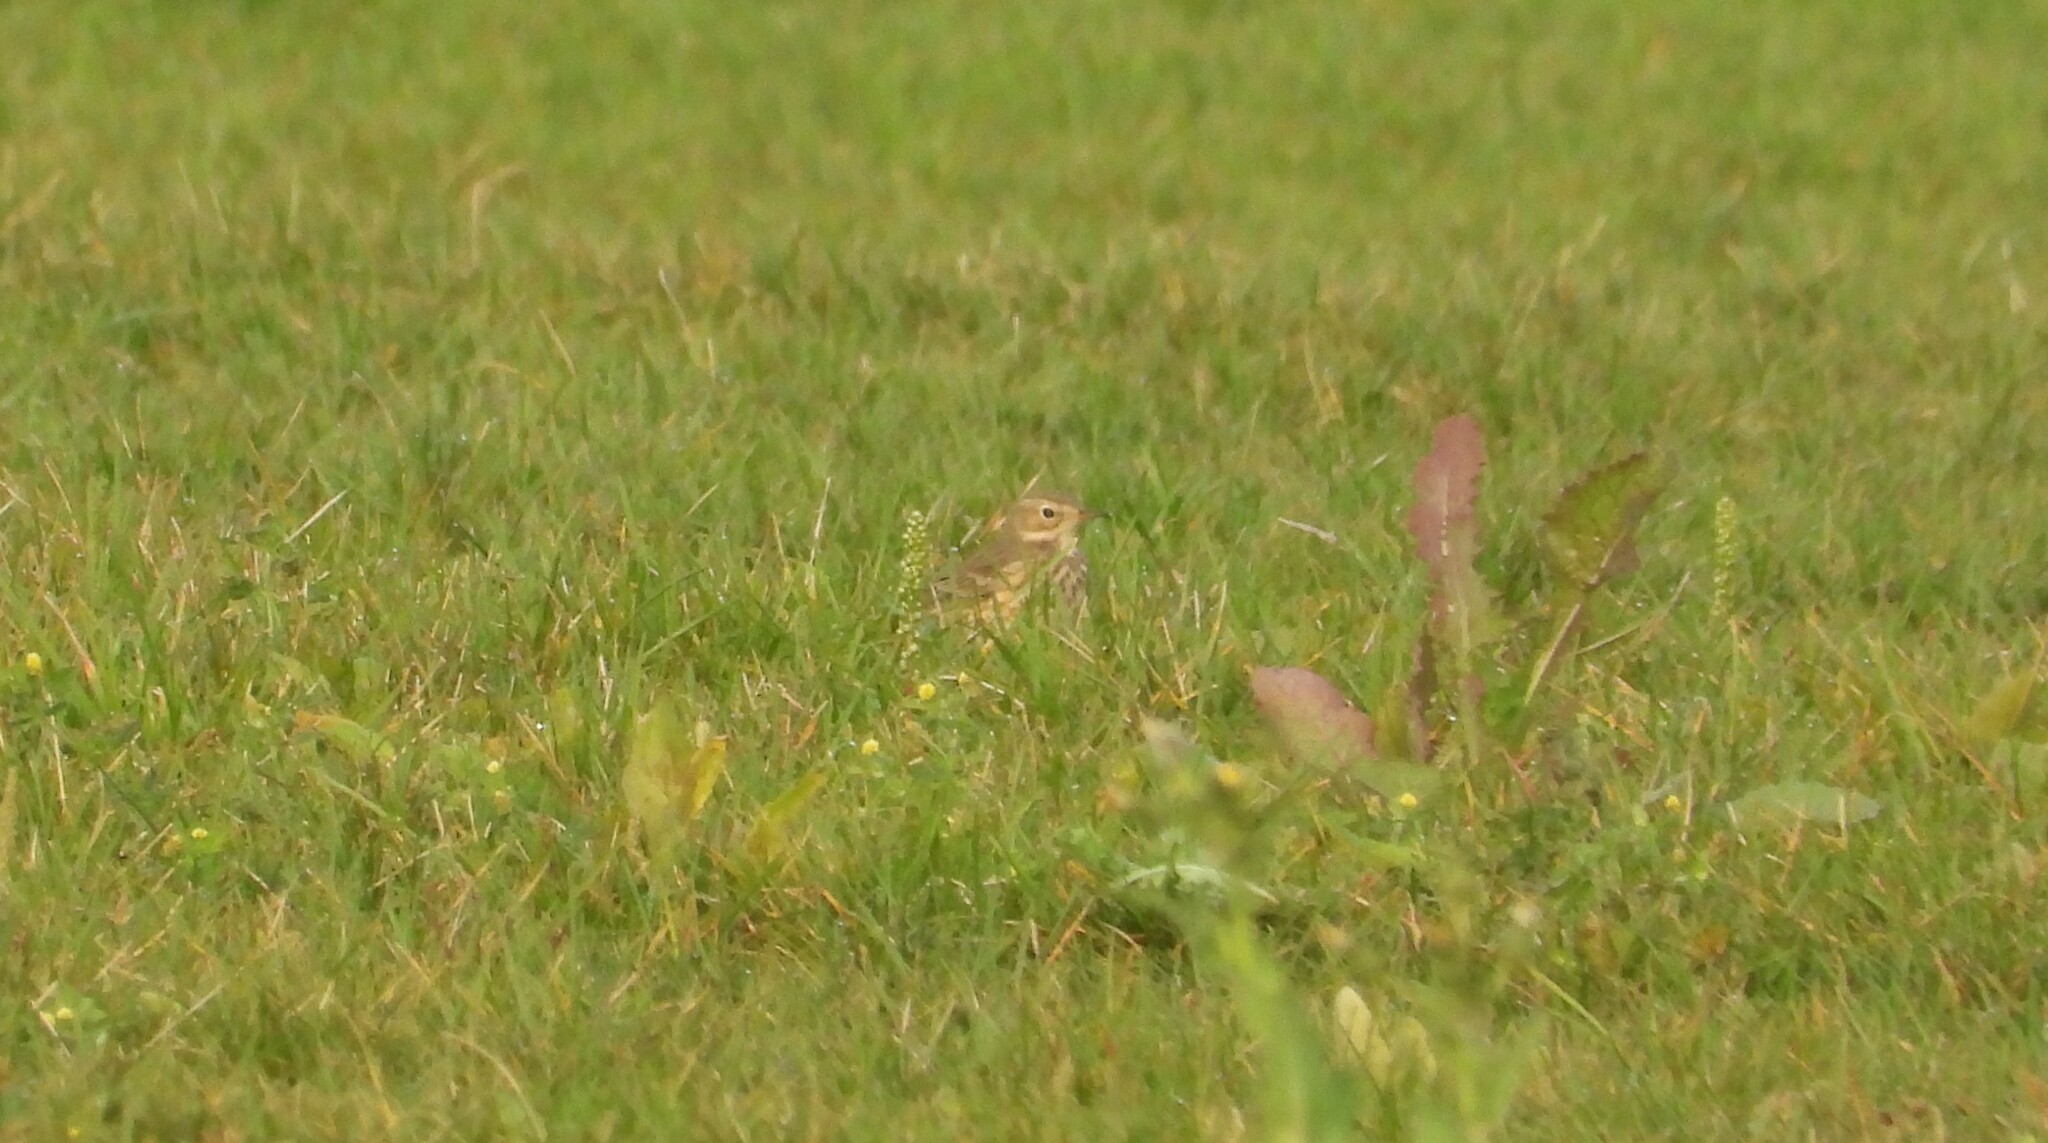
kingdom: Animalia
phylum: Chordata
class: Aves
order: Passeriformes
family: Motacillidae
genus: Anthus
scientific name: Anthus rubescens
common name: Buff-bellied pipit
